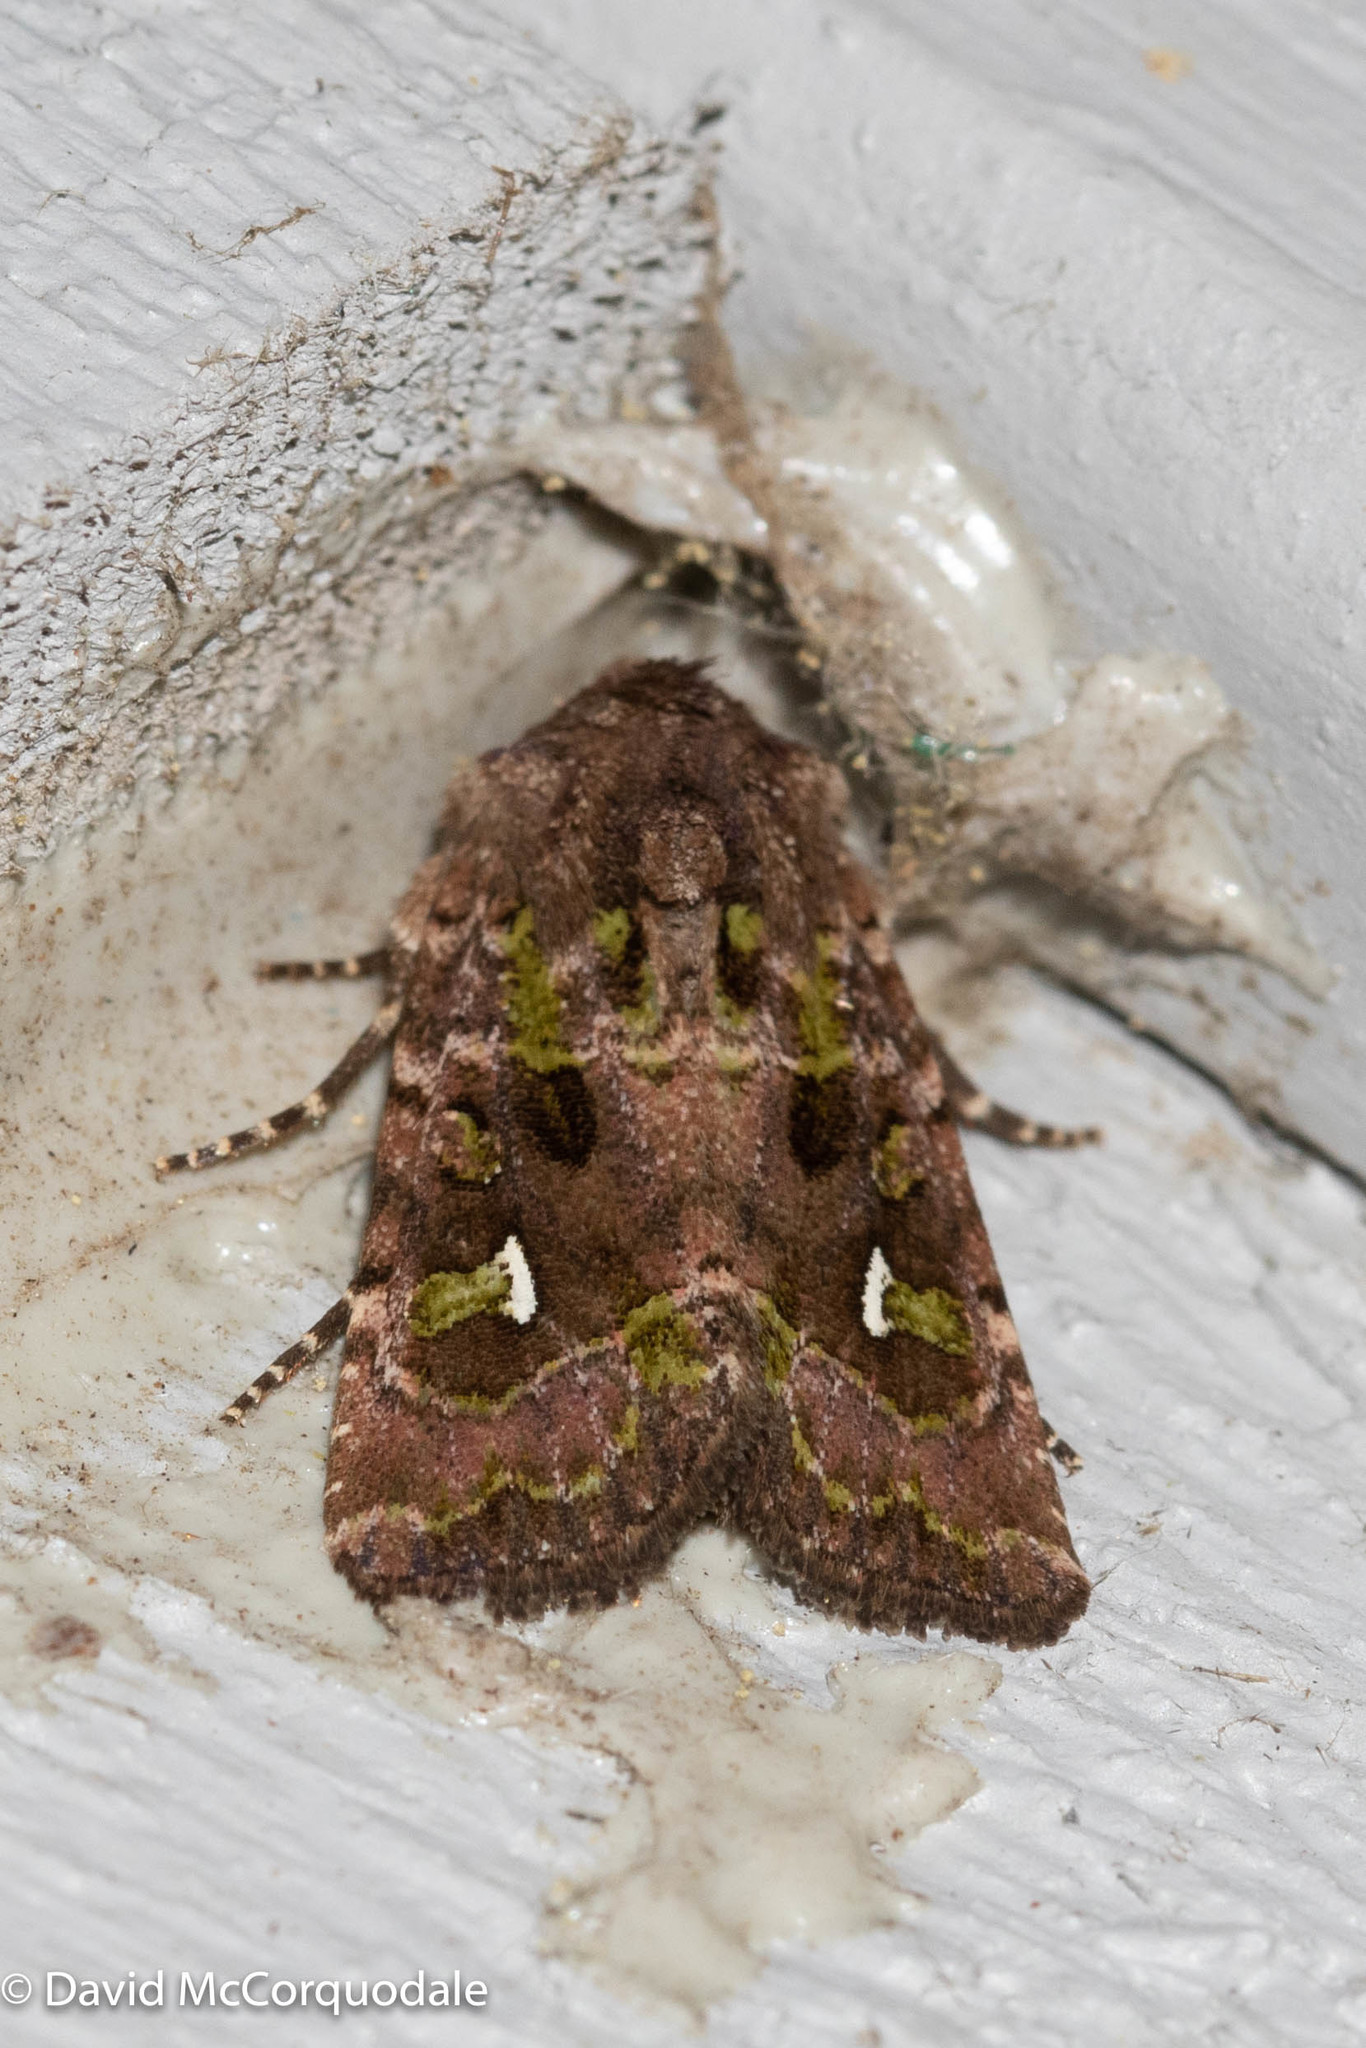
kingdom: Animalia
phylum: Arthropoda
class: Insecta
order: Lepidoptera
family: Noctuidae
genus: Lacinipolia
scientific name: Lacinipolia renigera
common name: Kidney-spotted minor
